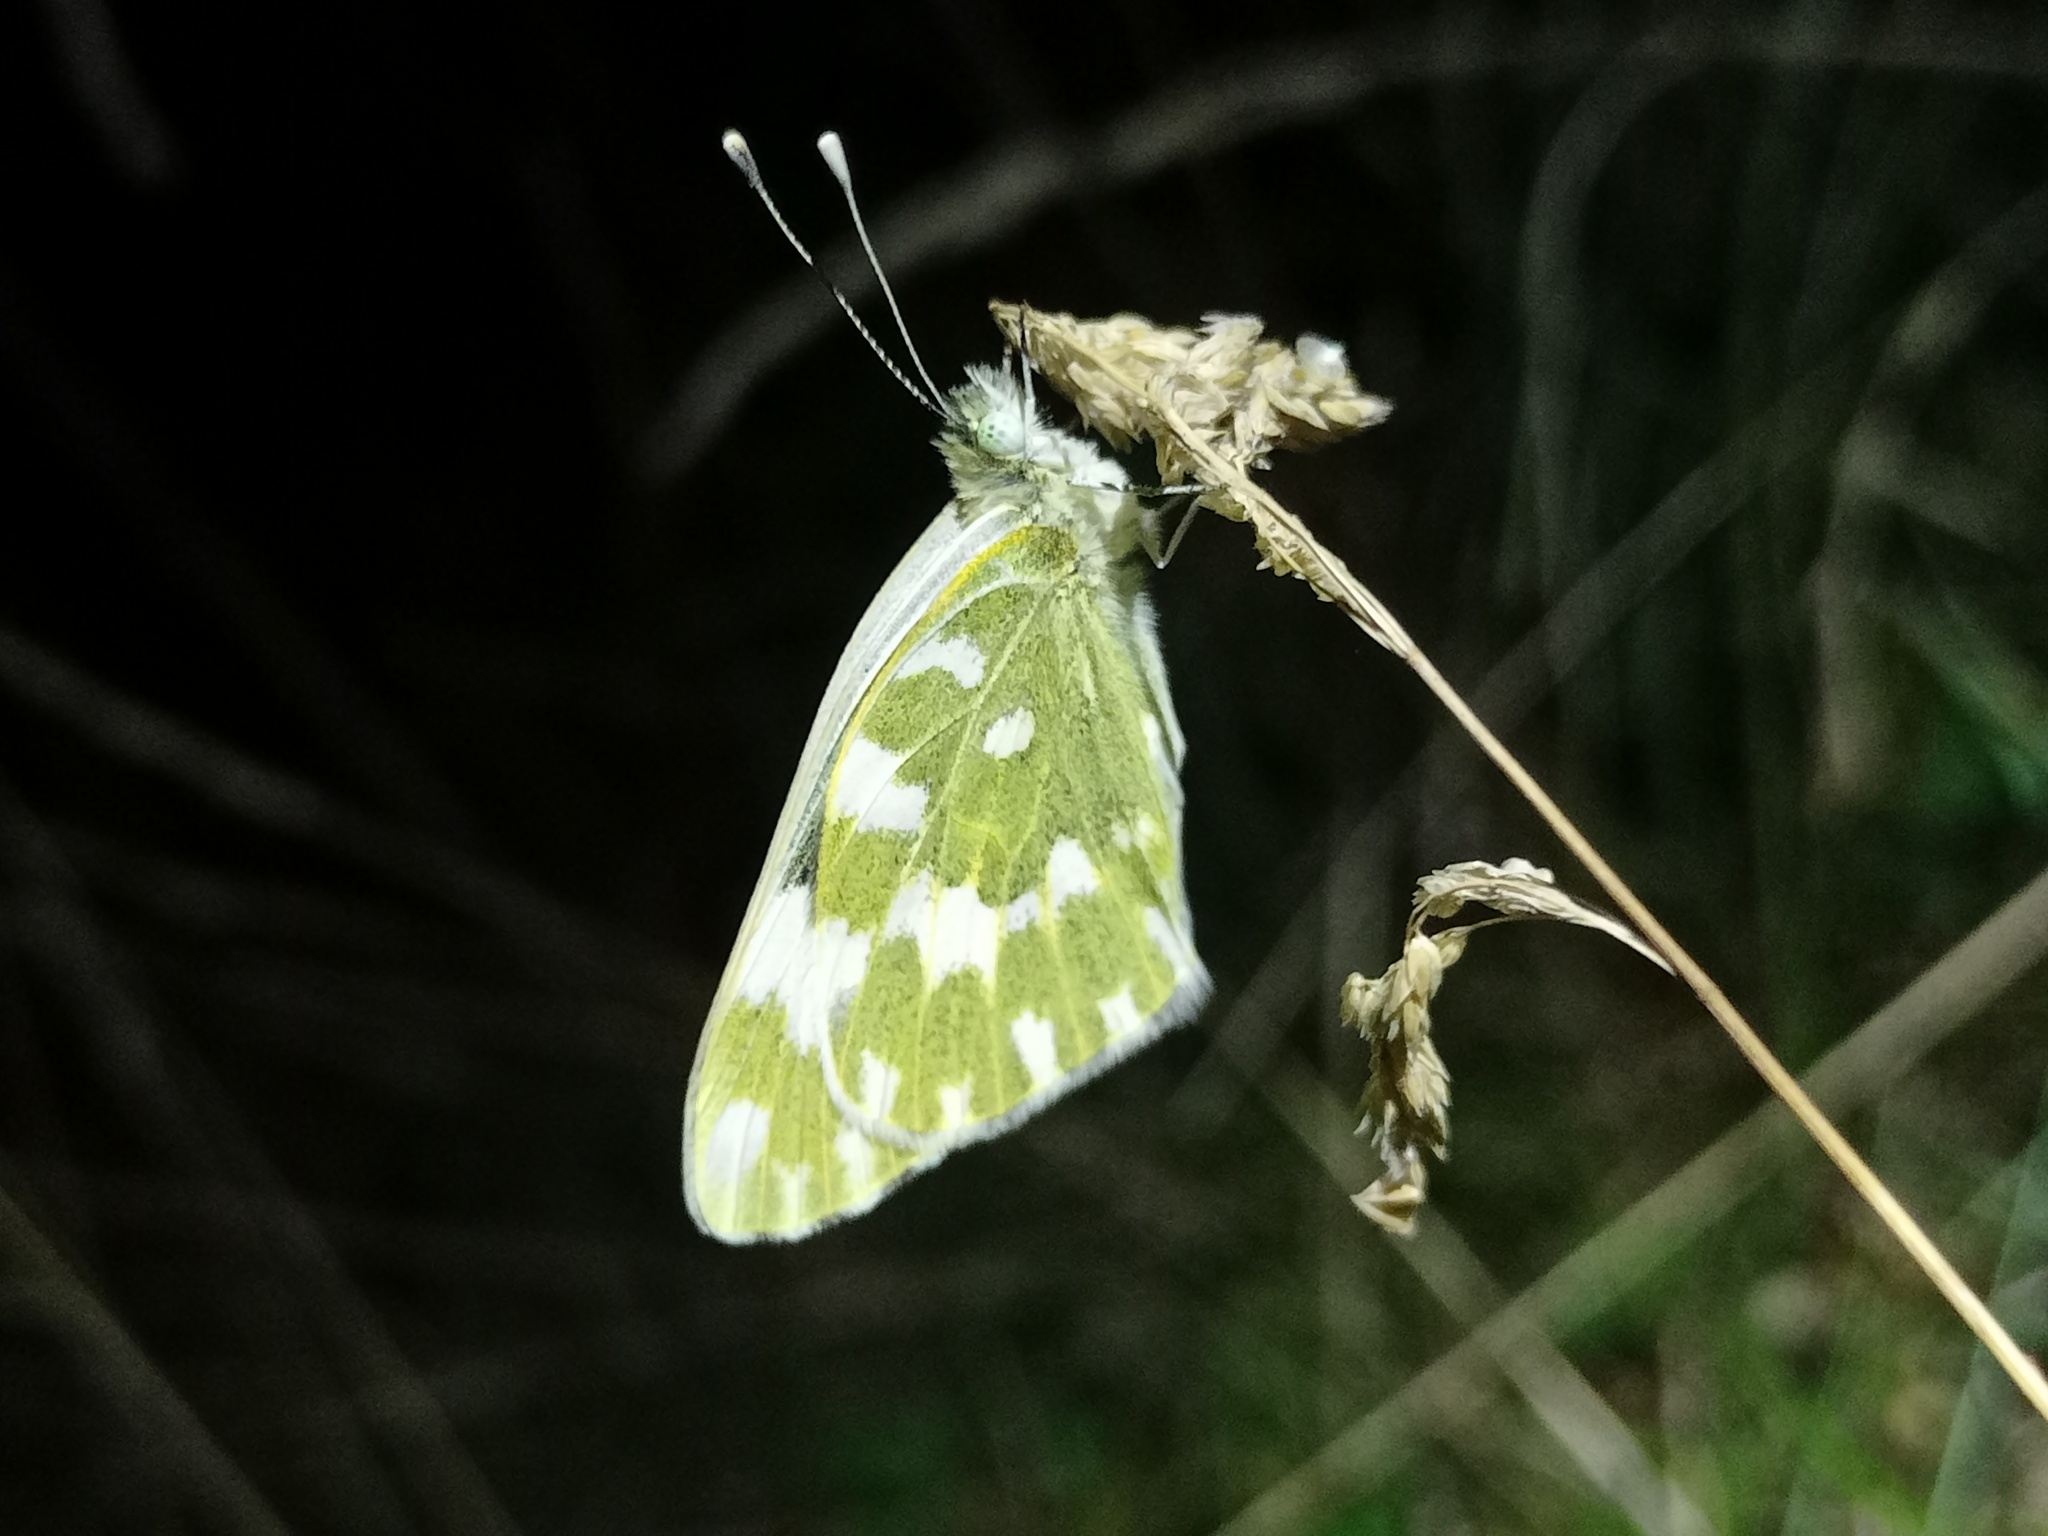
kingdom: Animalia
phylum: Arthropoda
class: Insecta
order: Lepidoptera
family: Pieridae
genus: Pontia
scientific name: Pontia edusa
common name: Eastern bath white
